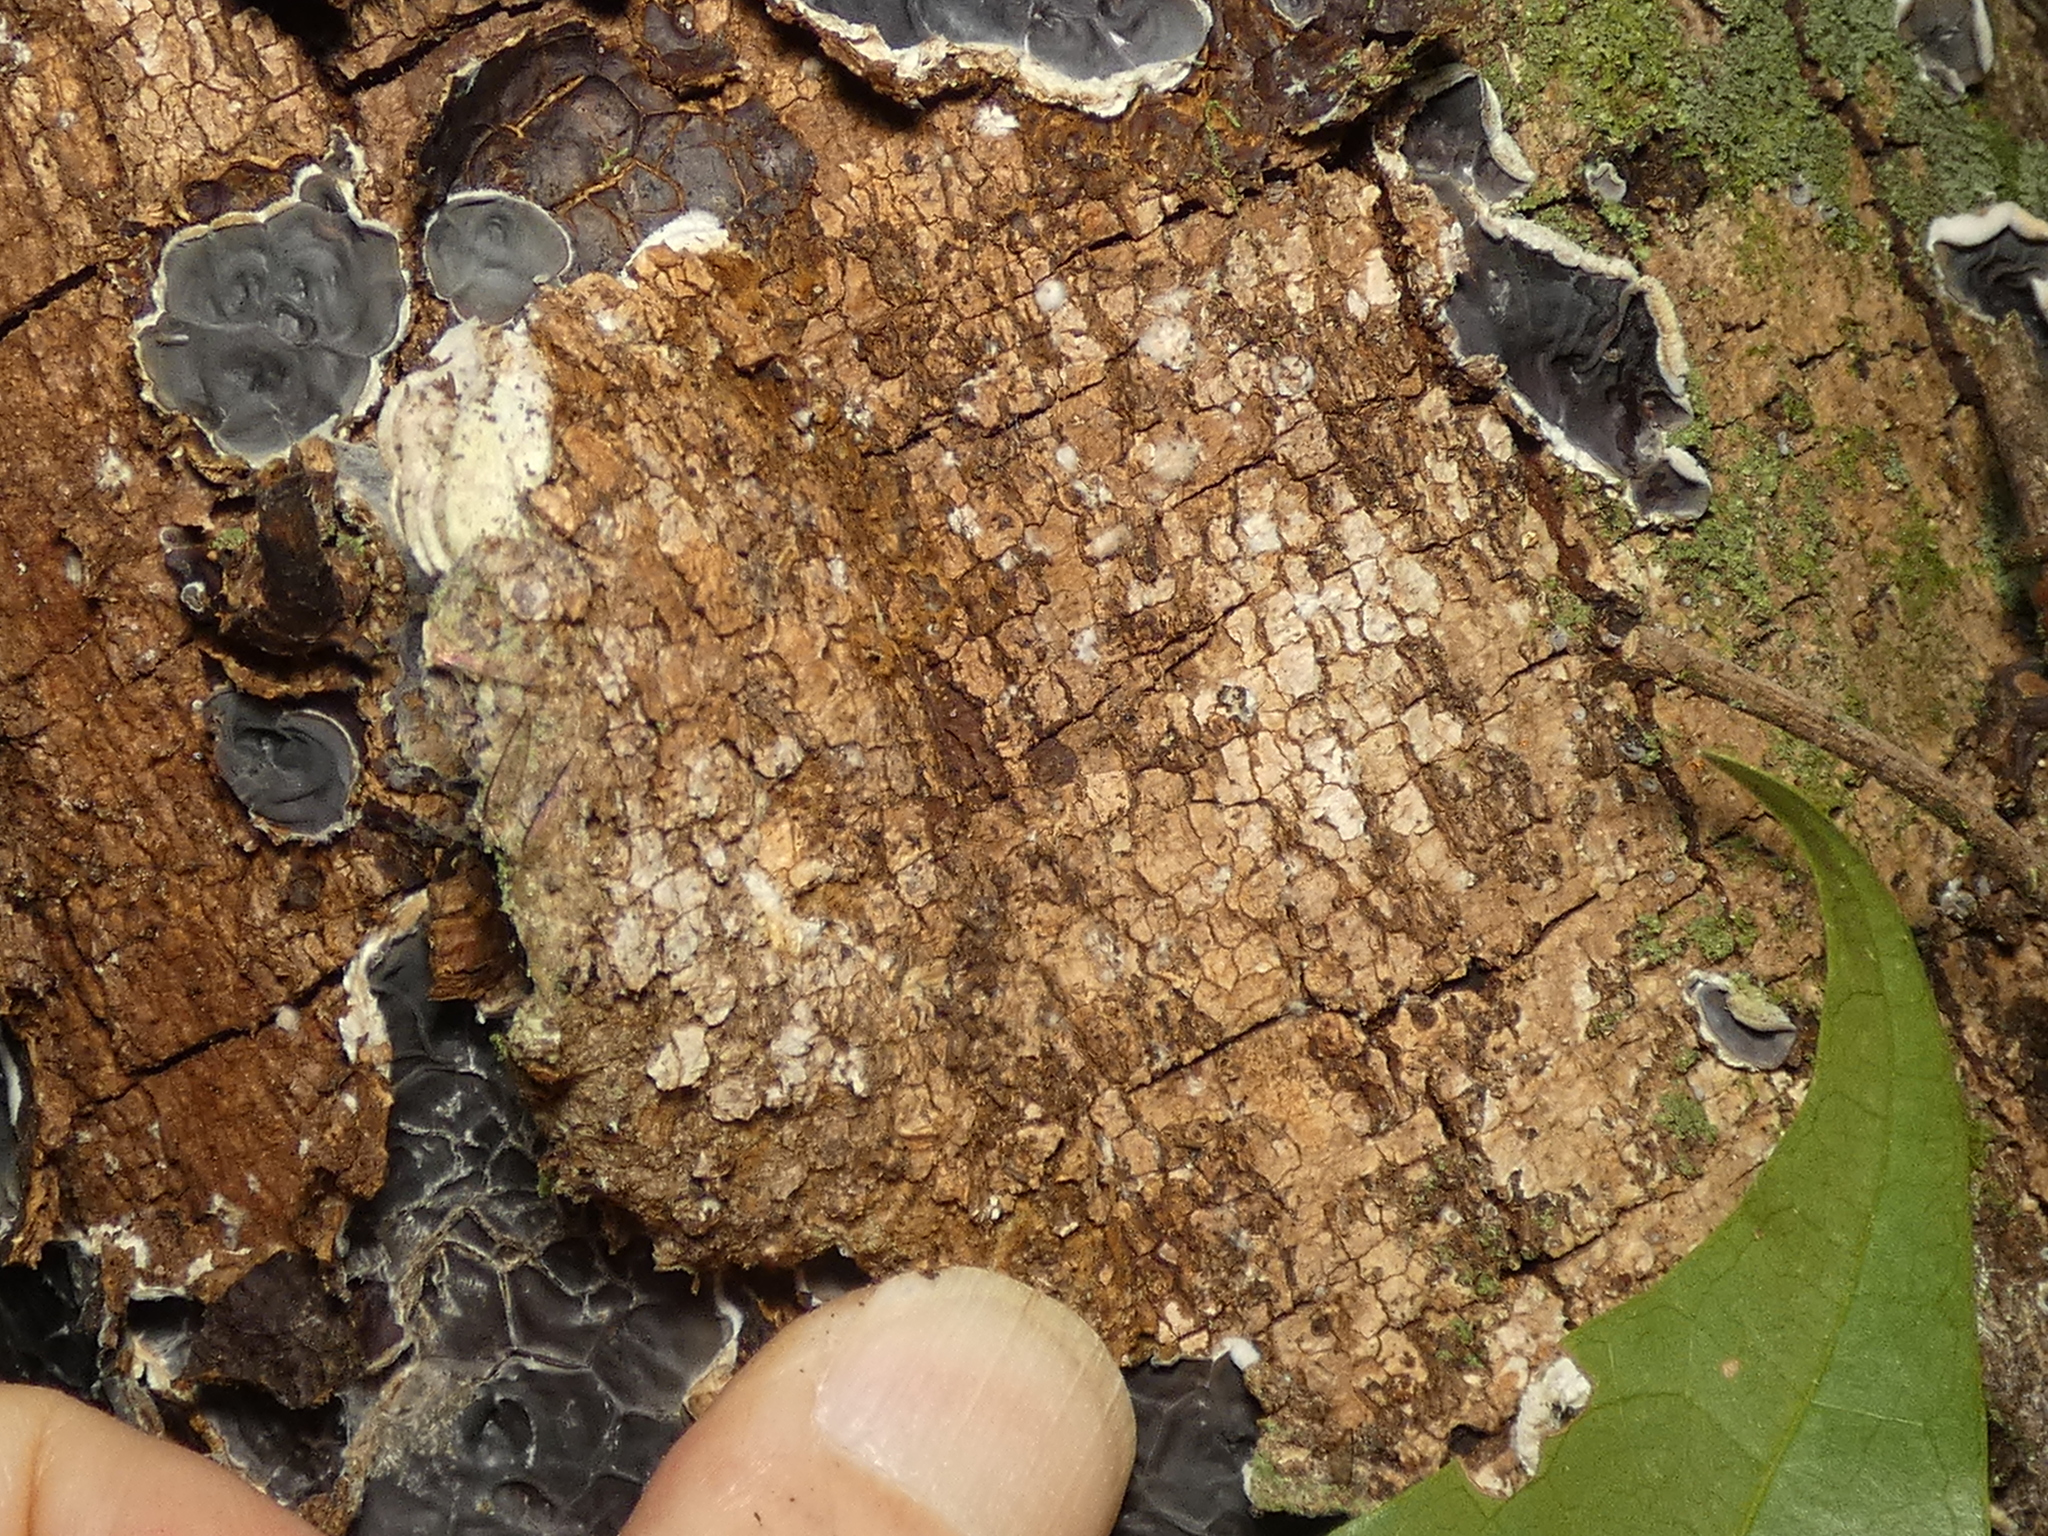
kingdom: Fungi
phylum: Basidiomycota
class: Agaricomycetes
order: Auriculariales
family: Auriculariaceae
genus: Auricularia
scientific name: Auricularia brasiliana
